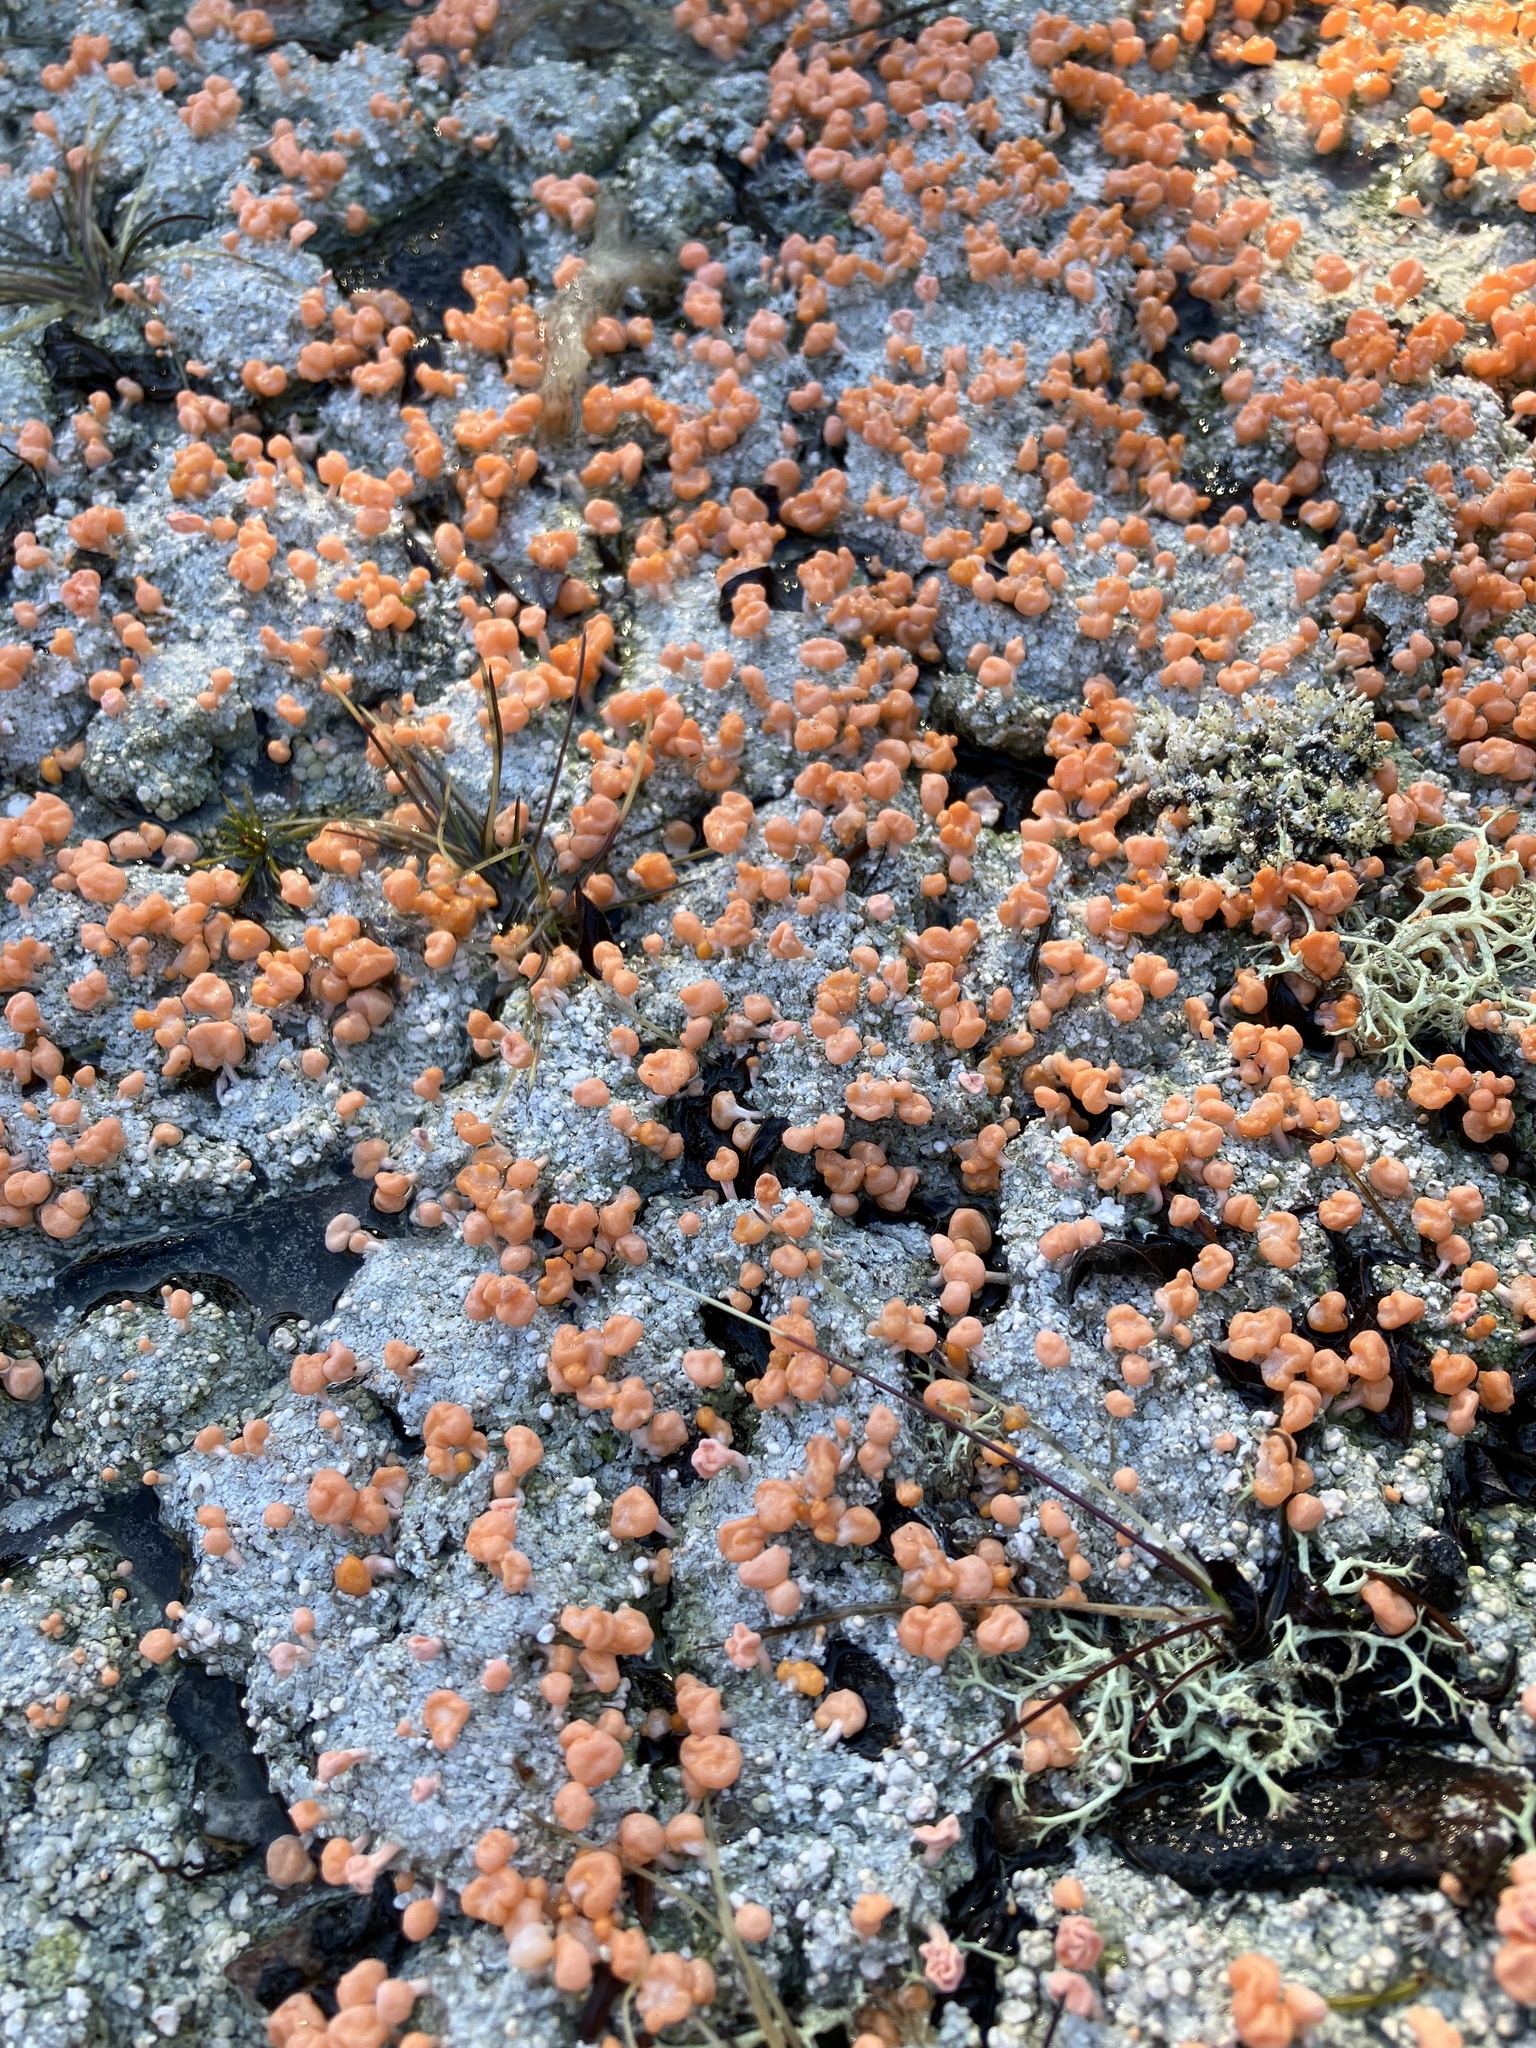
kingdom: Fungi
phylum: Ascomycota
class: Lecanoromycetes
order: Pertusariales
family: Icmadophilaceae
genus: Dibaeis
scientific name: Dibaeis baeomyces
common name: Pink earth lichen
